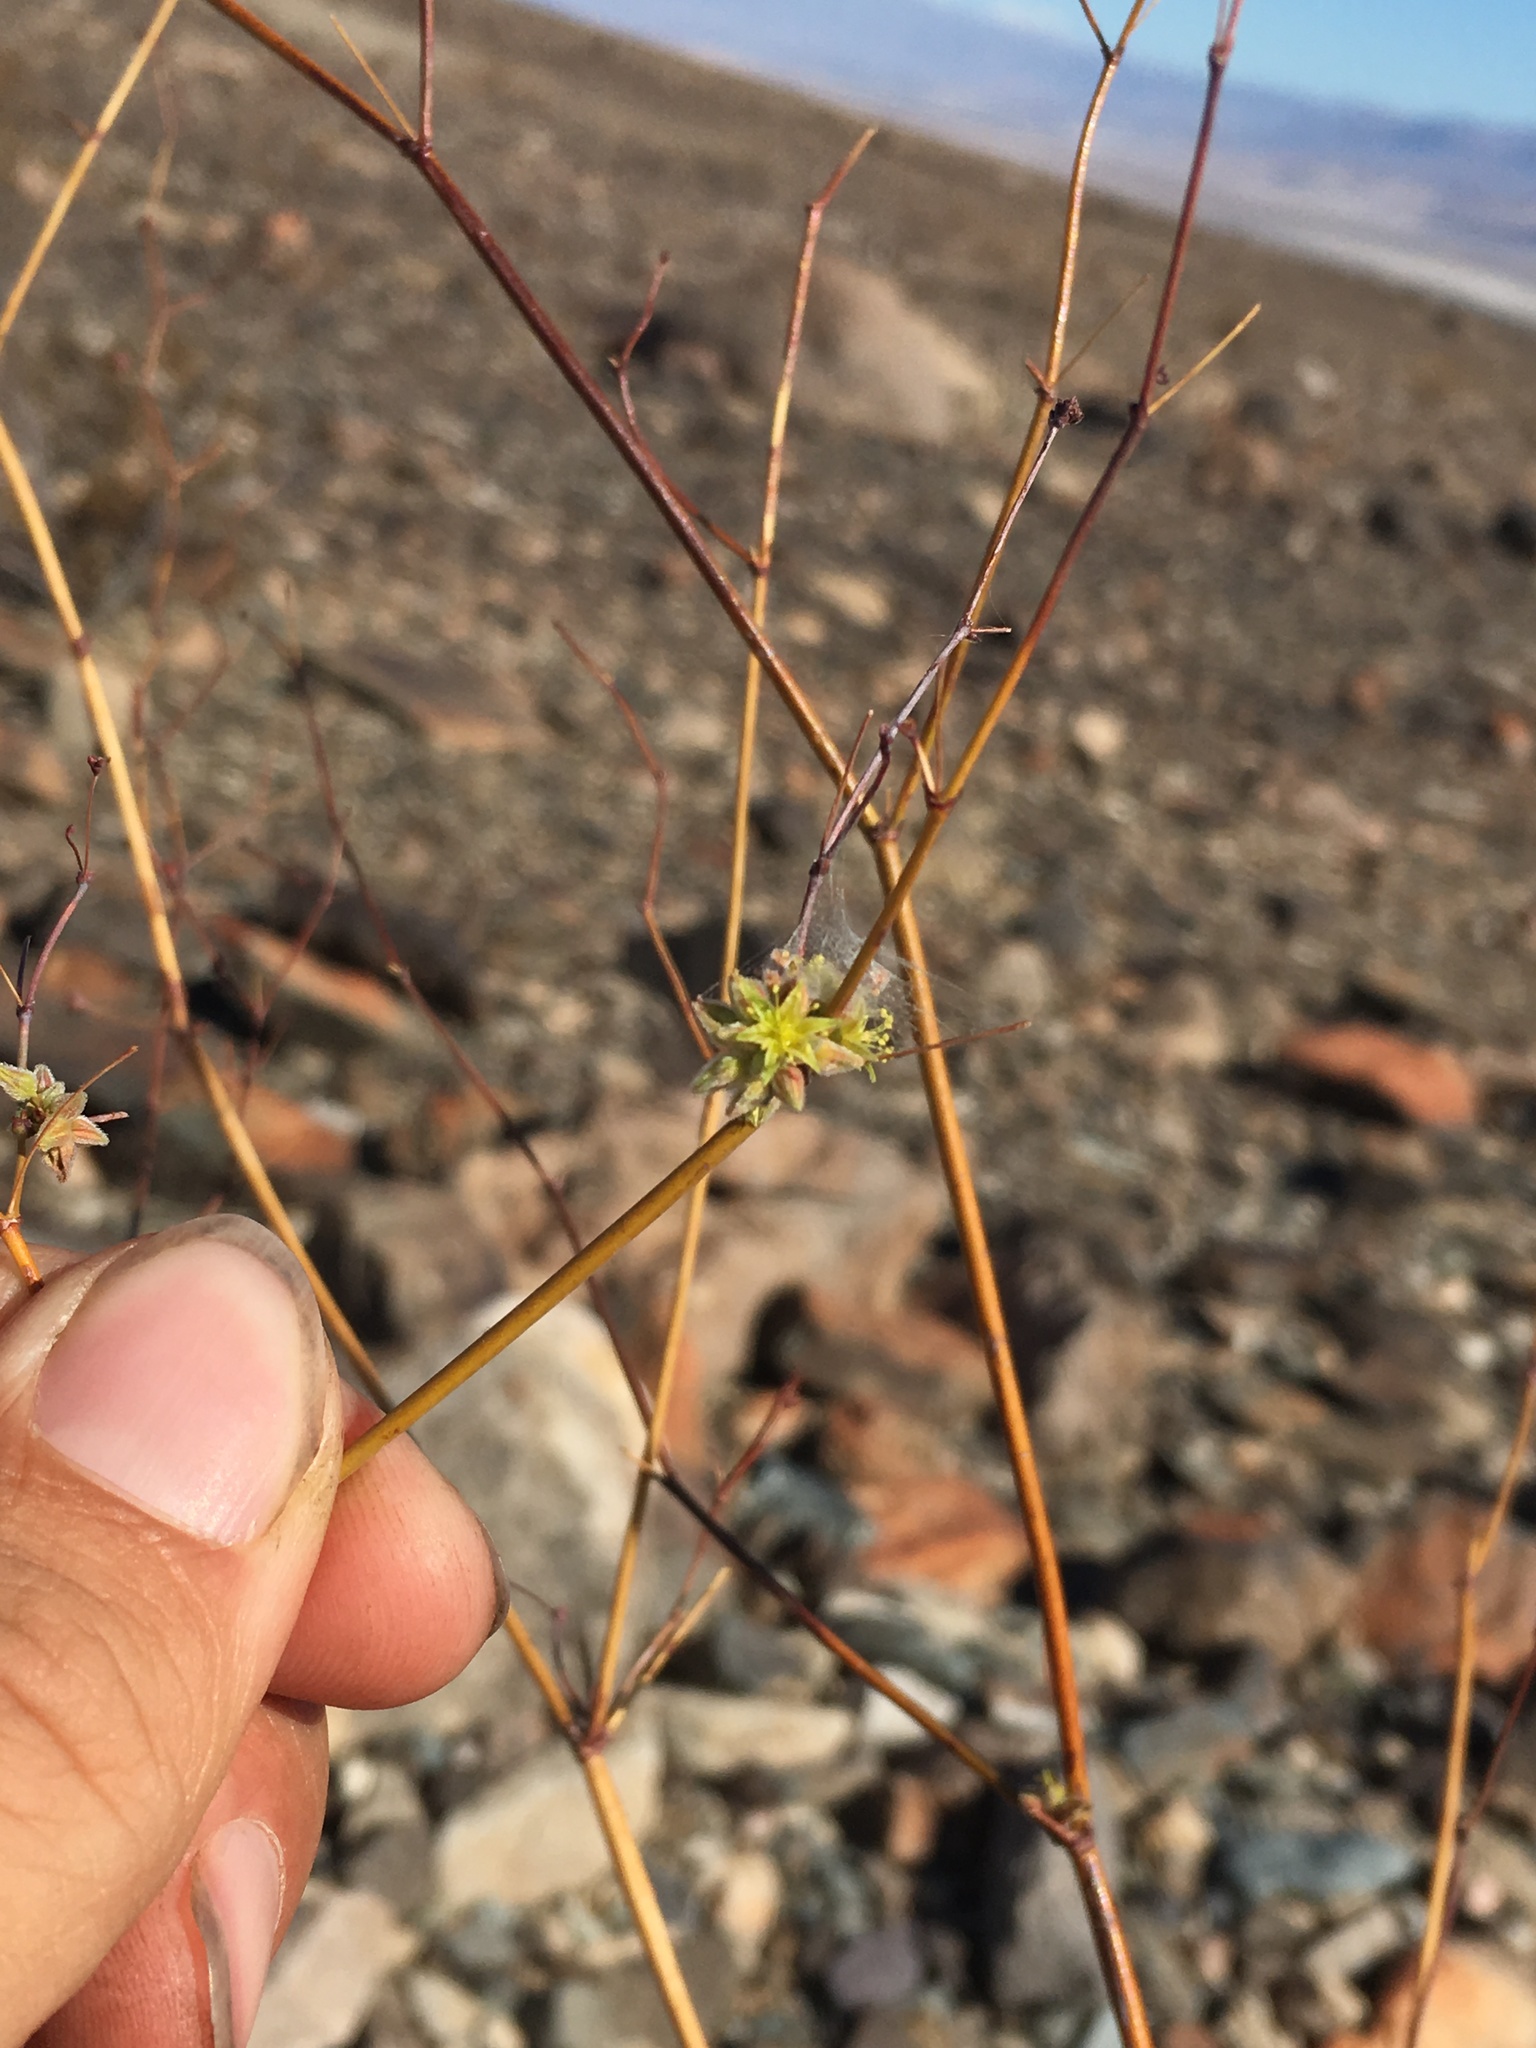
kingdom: Plantae
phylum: Tracheophyta
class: Magnoliopsida
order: Caryophyllales
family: Polygonaceae
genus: Eriogonum
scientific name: Eriogonum inflatum
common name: Desert trumpet
